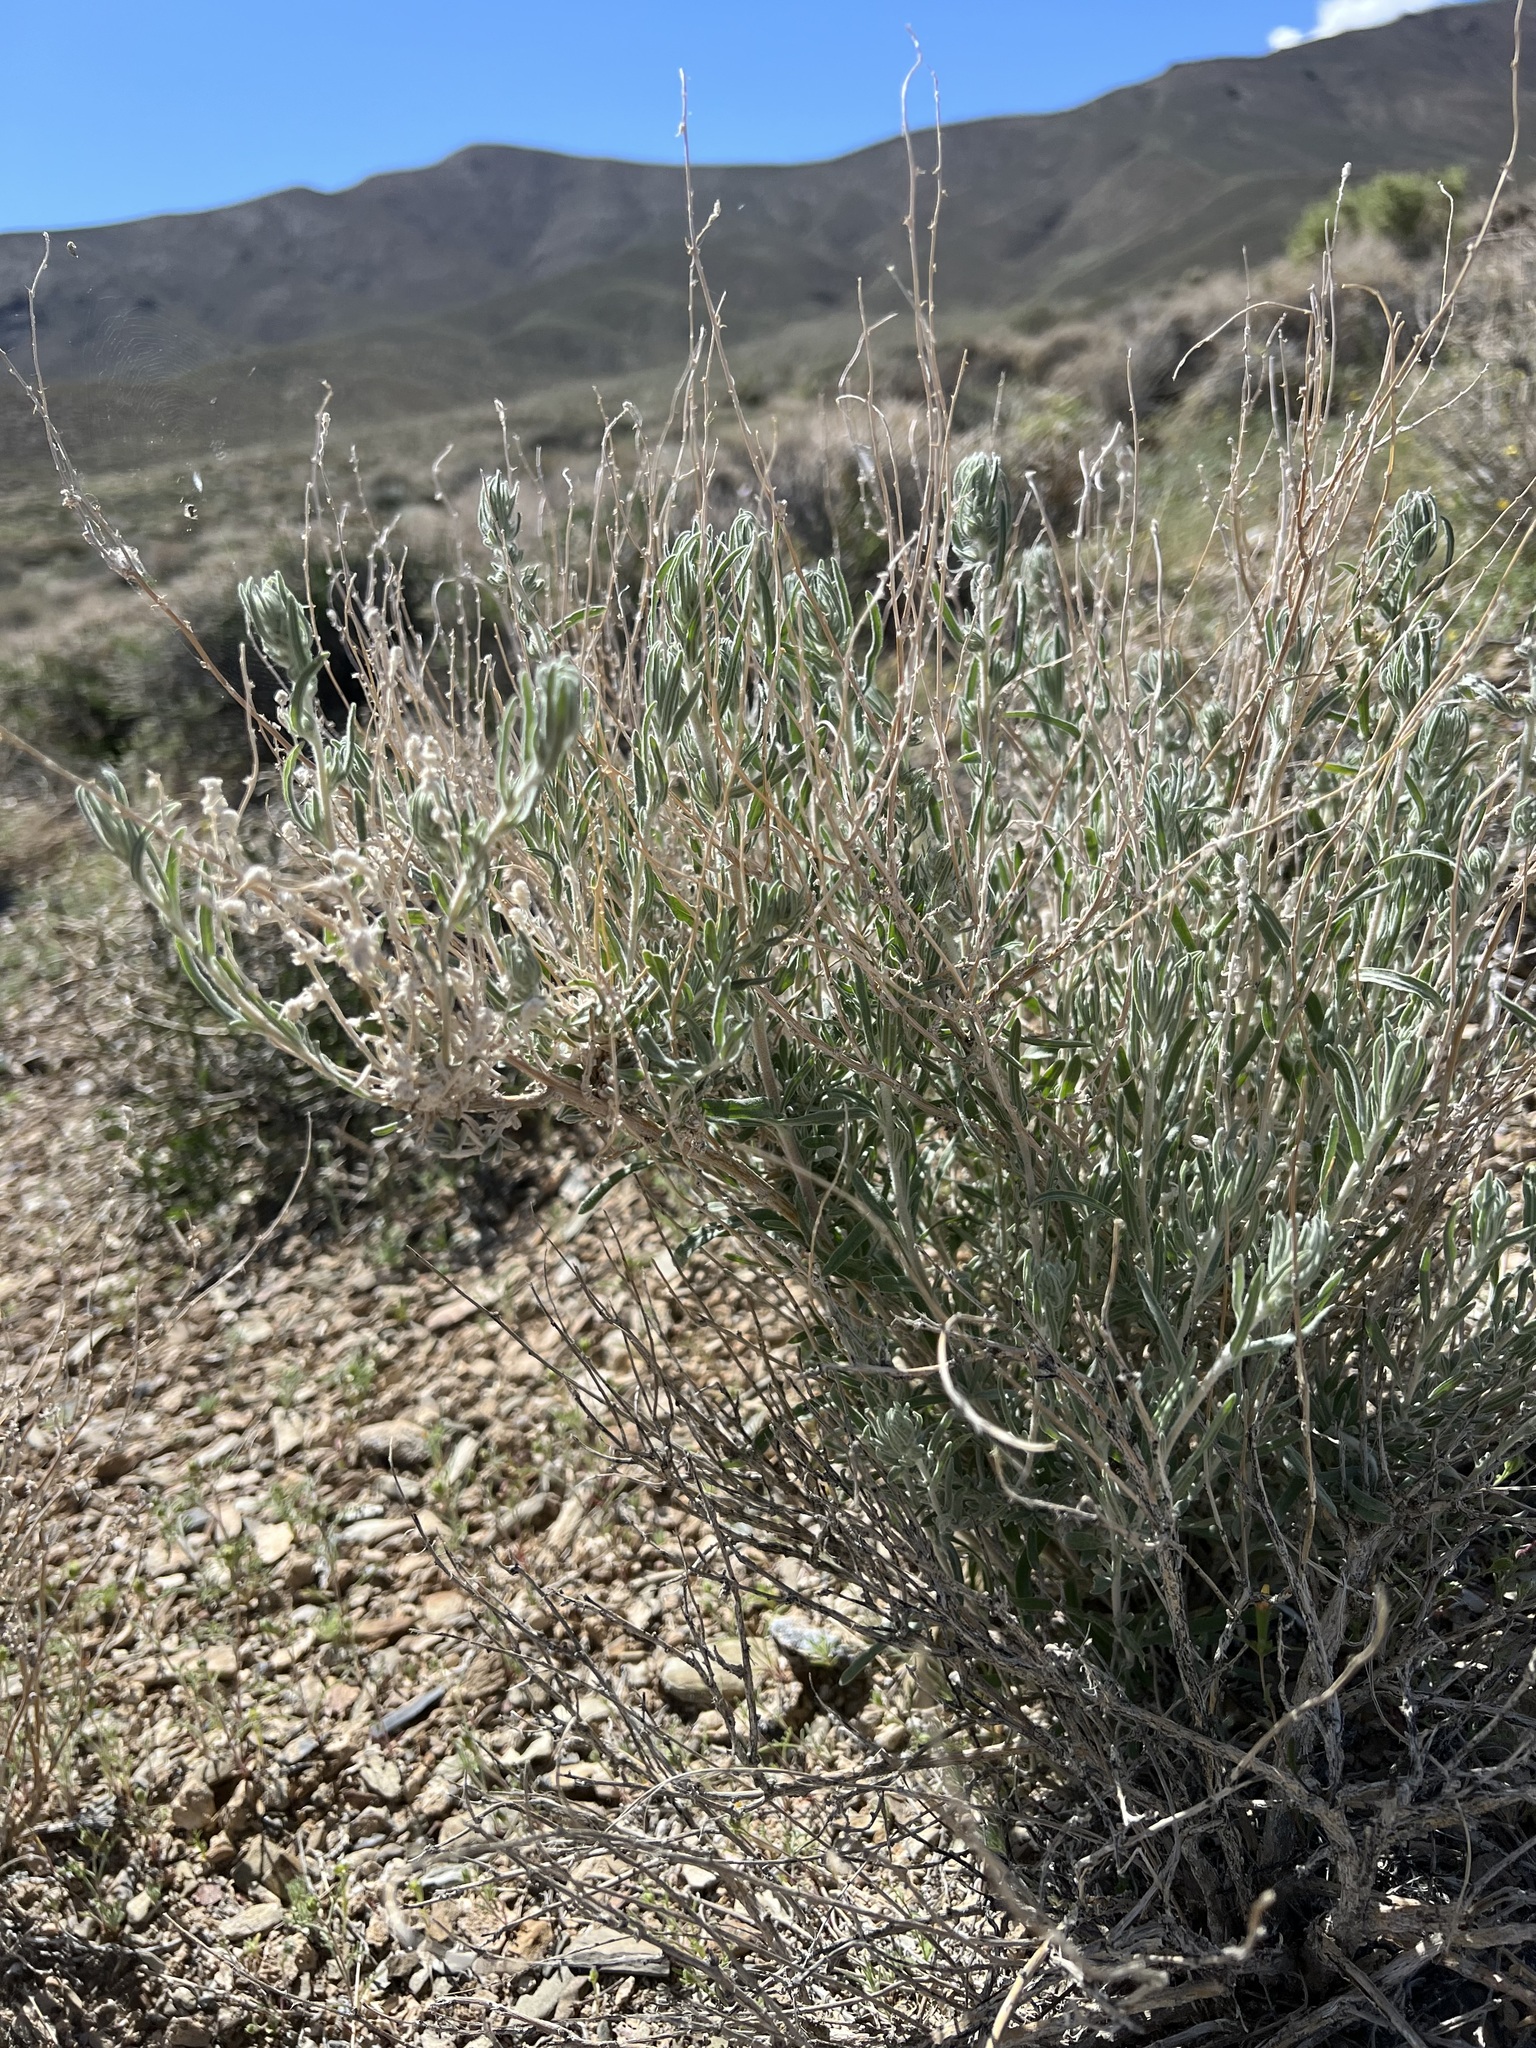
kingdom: Plantae
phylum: Tracheophyta
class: Magnoliopsida
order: Caryophyllales
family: Amaranthaceae
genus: Krascheninnikovia
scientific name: Krascheninnikovia lanata
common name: Winterfat
